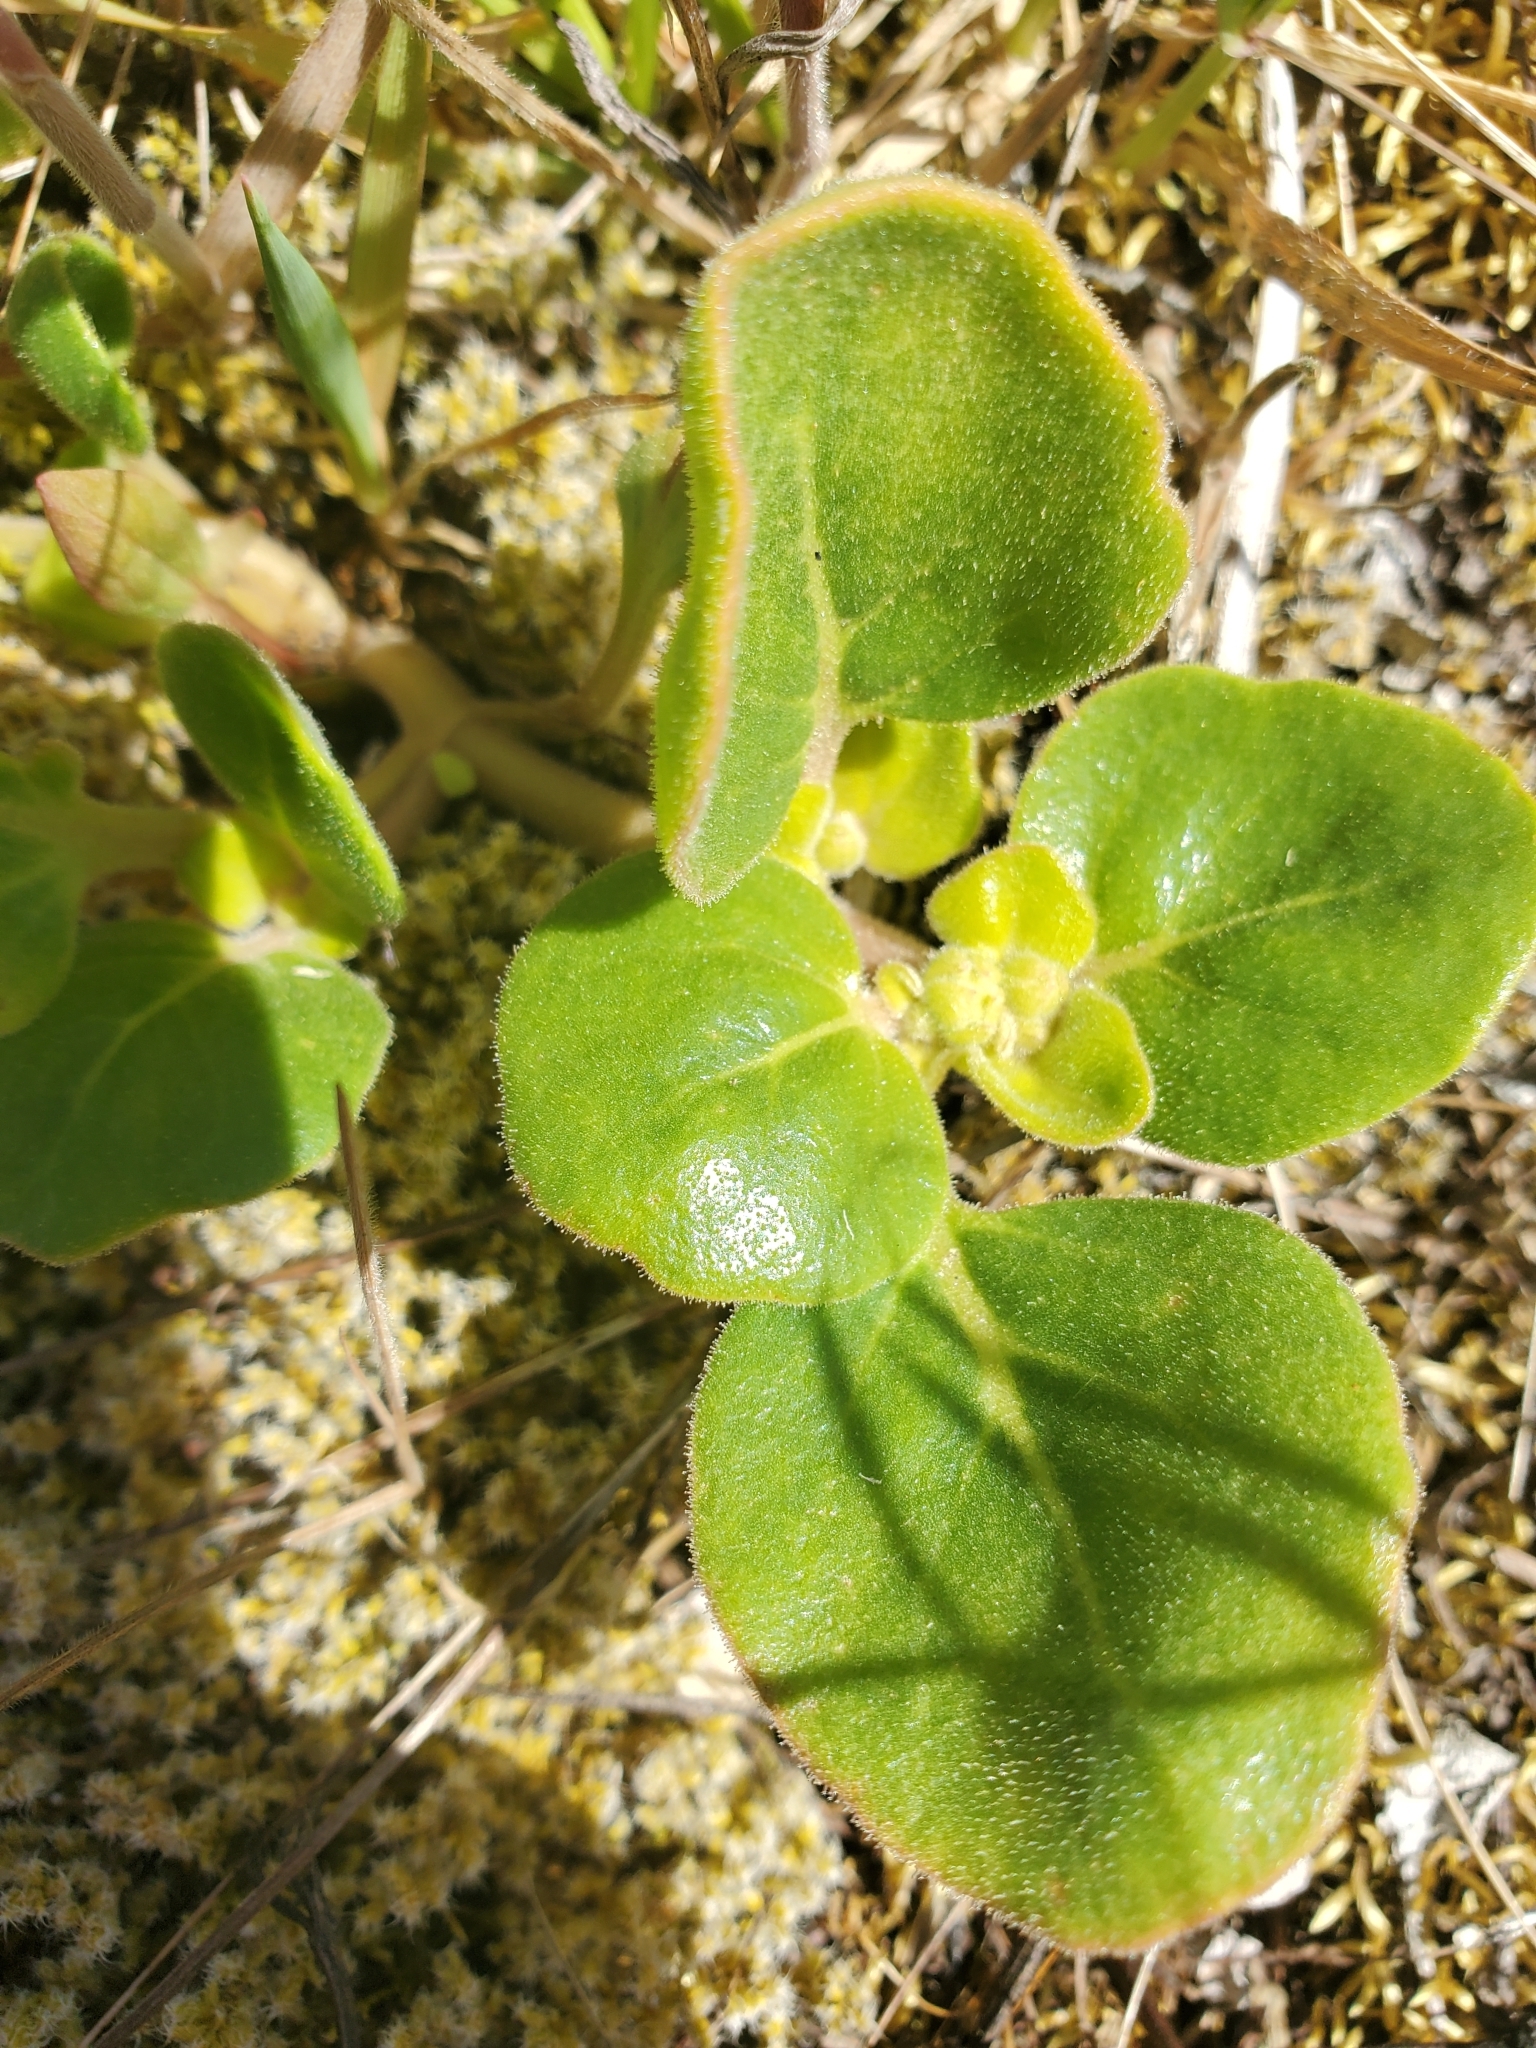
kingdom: Plantae
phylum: Tracheophyta
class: Magnoliopsida
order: Caryophyllales
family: Nyctaginaceae
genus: Abronia
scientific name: Abronia latifolia
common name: Yellow sand-verbena
